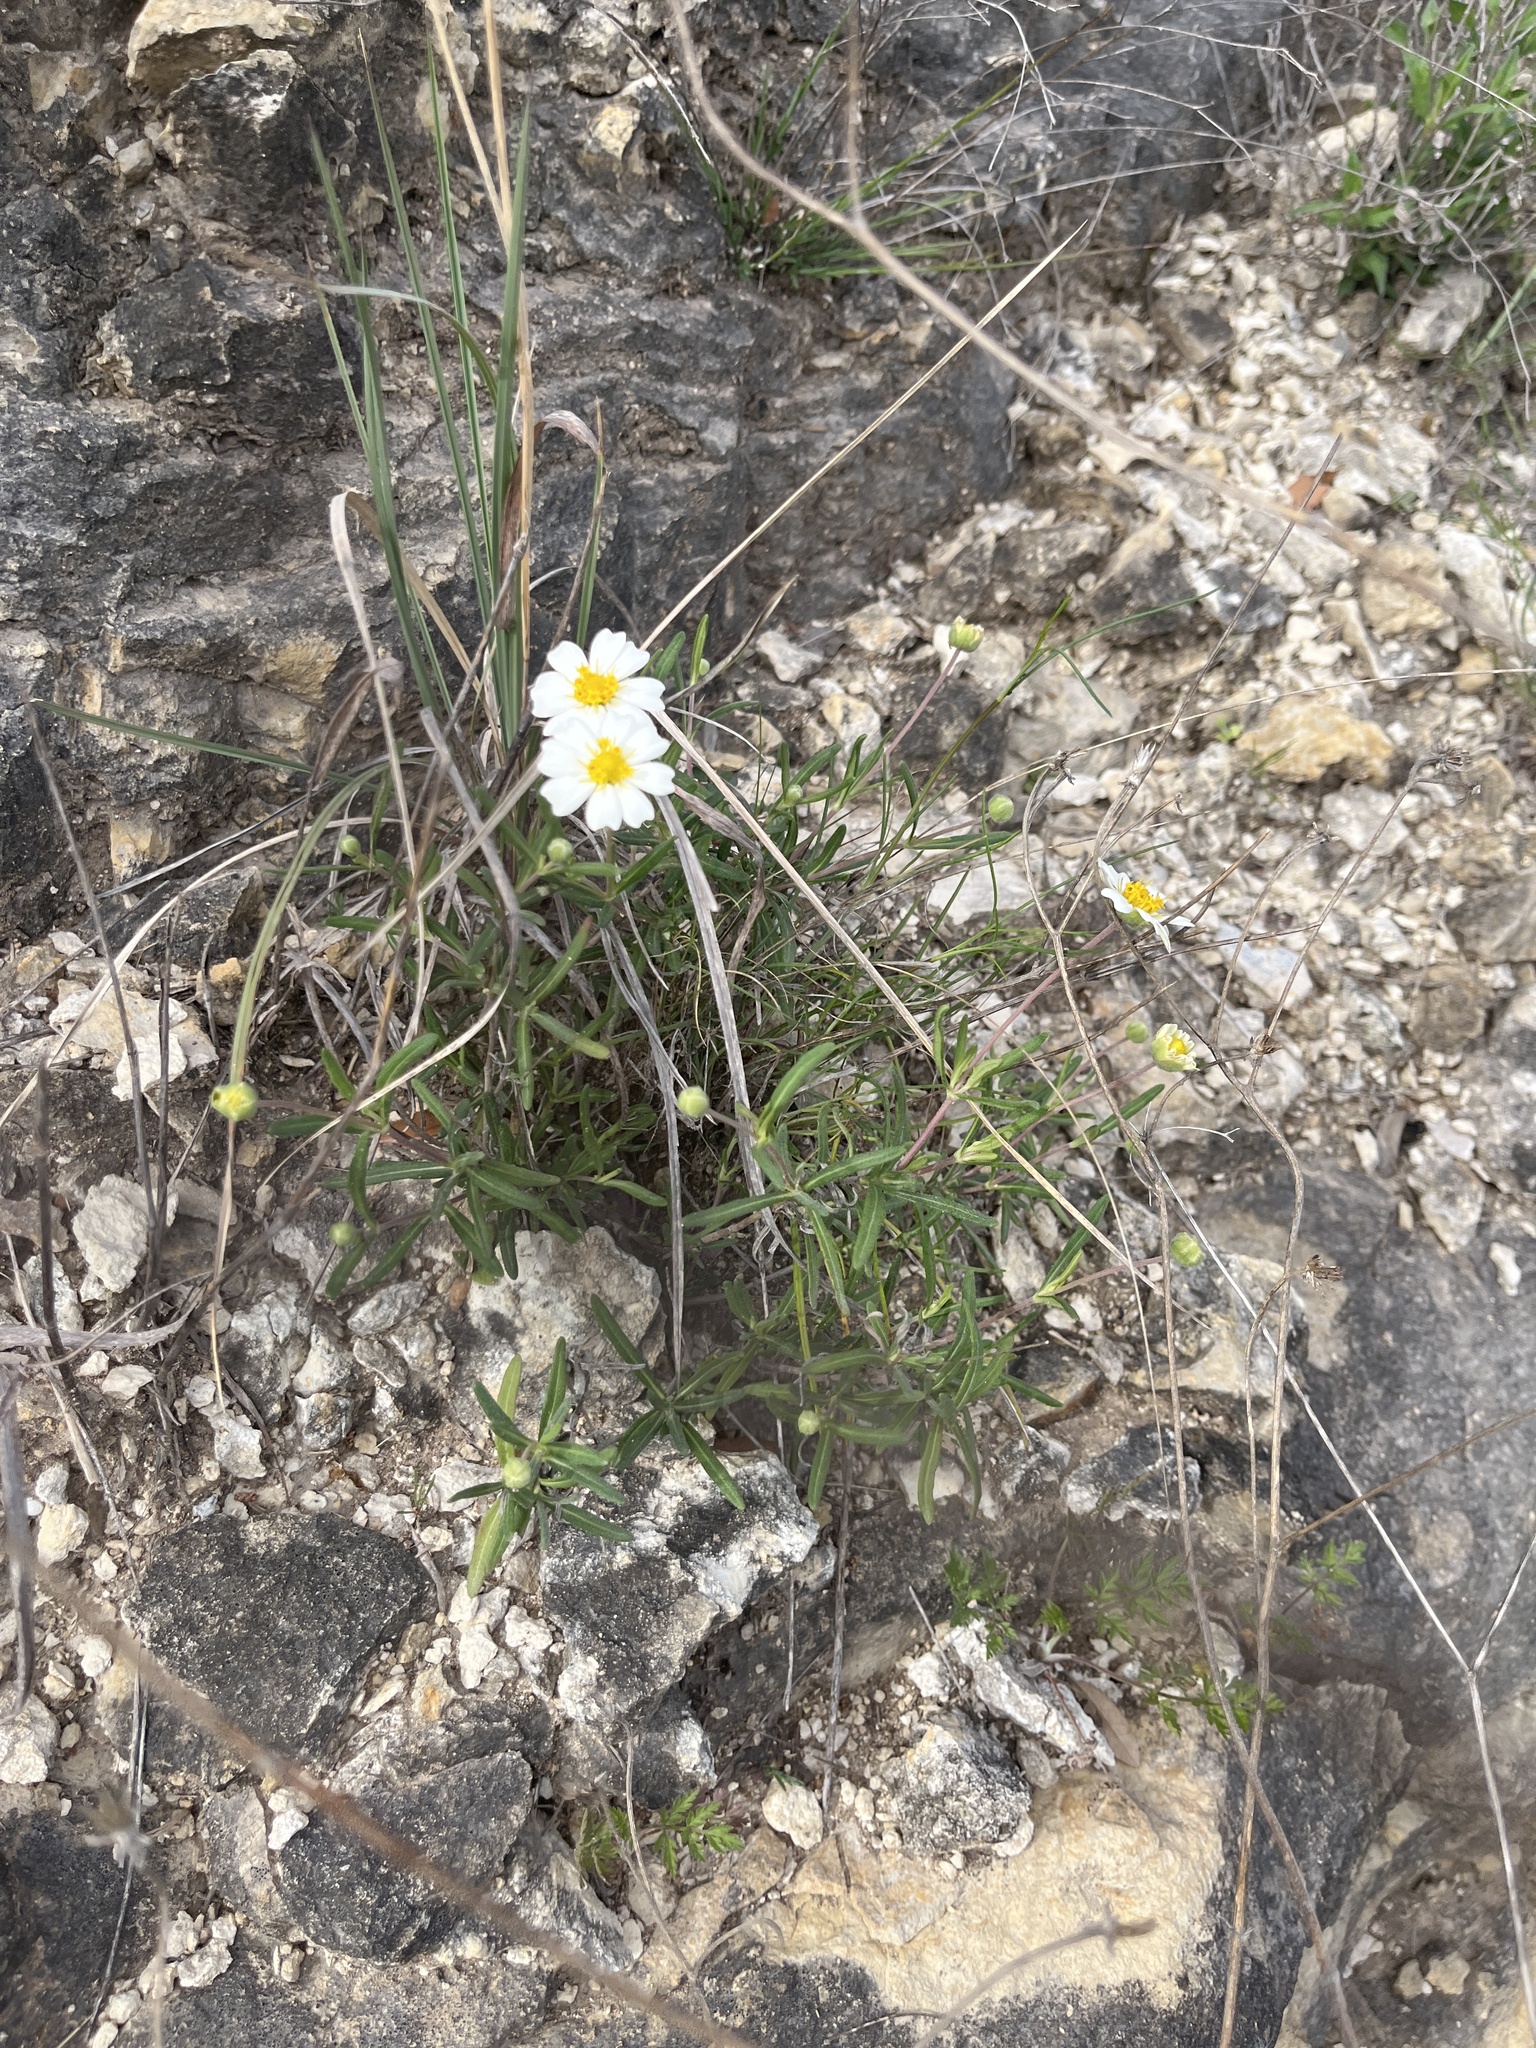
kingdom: Plantae
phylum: Tracheophyta
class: Magnoliopsida
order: Asterales
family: Asteraceae
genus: Melampodium
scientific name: Melampodium leucanthum
